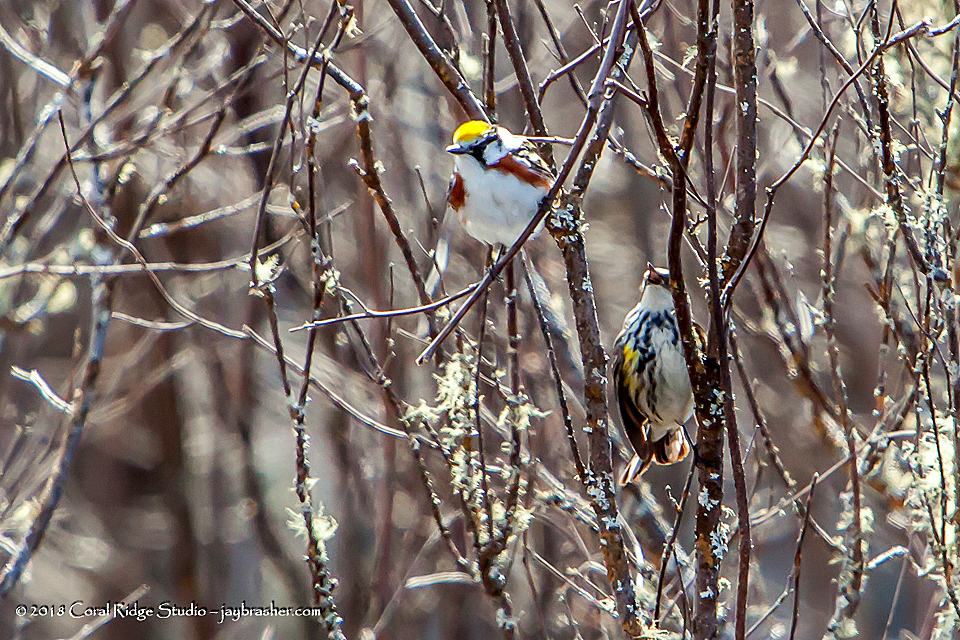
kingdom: Animalia
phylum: Chordata
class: Aves
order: Passeriformes
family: Parulidae
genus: Setophaga
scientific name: Setophaga pensylvanica
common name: Chestnut-sided warbler
